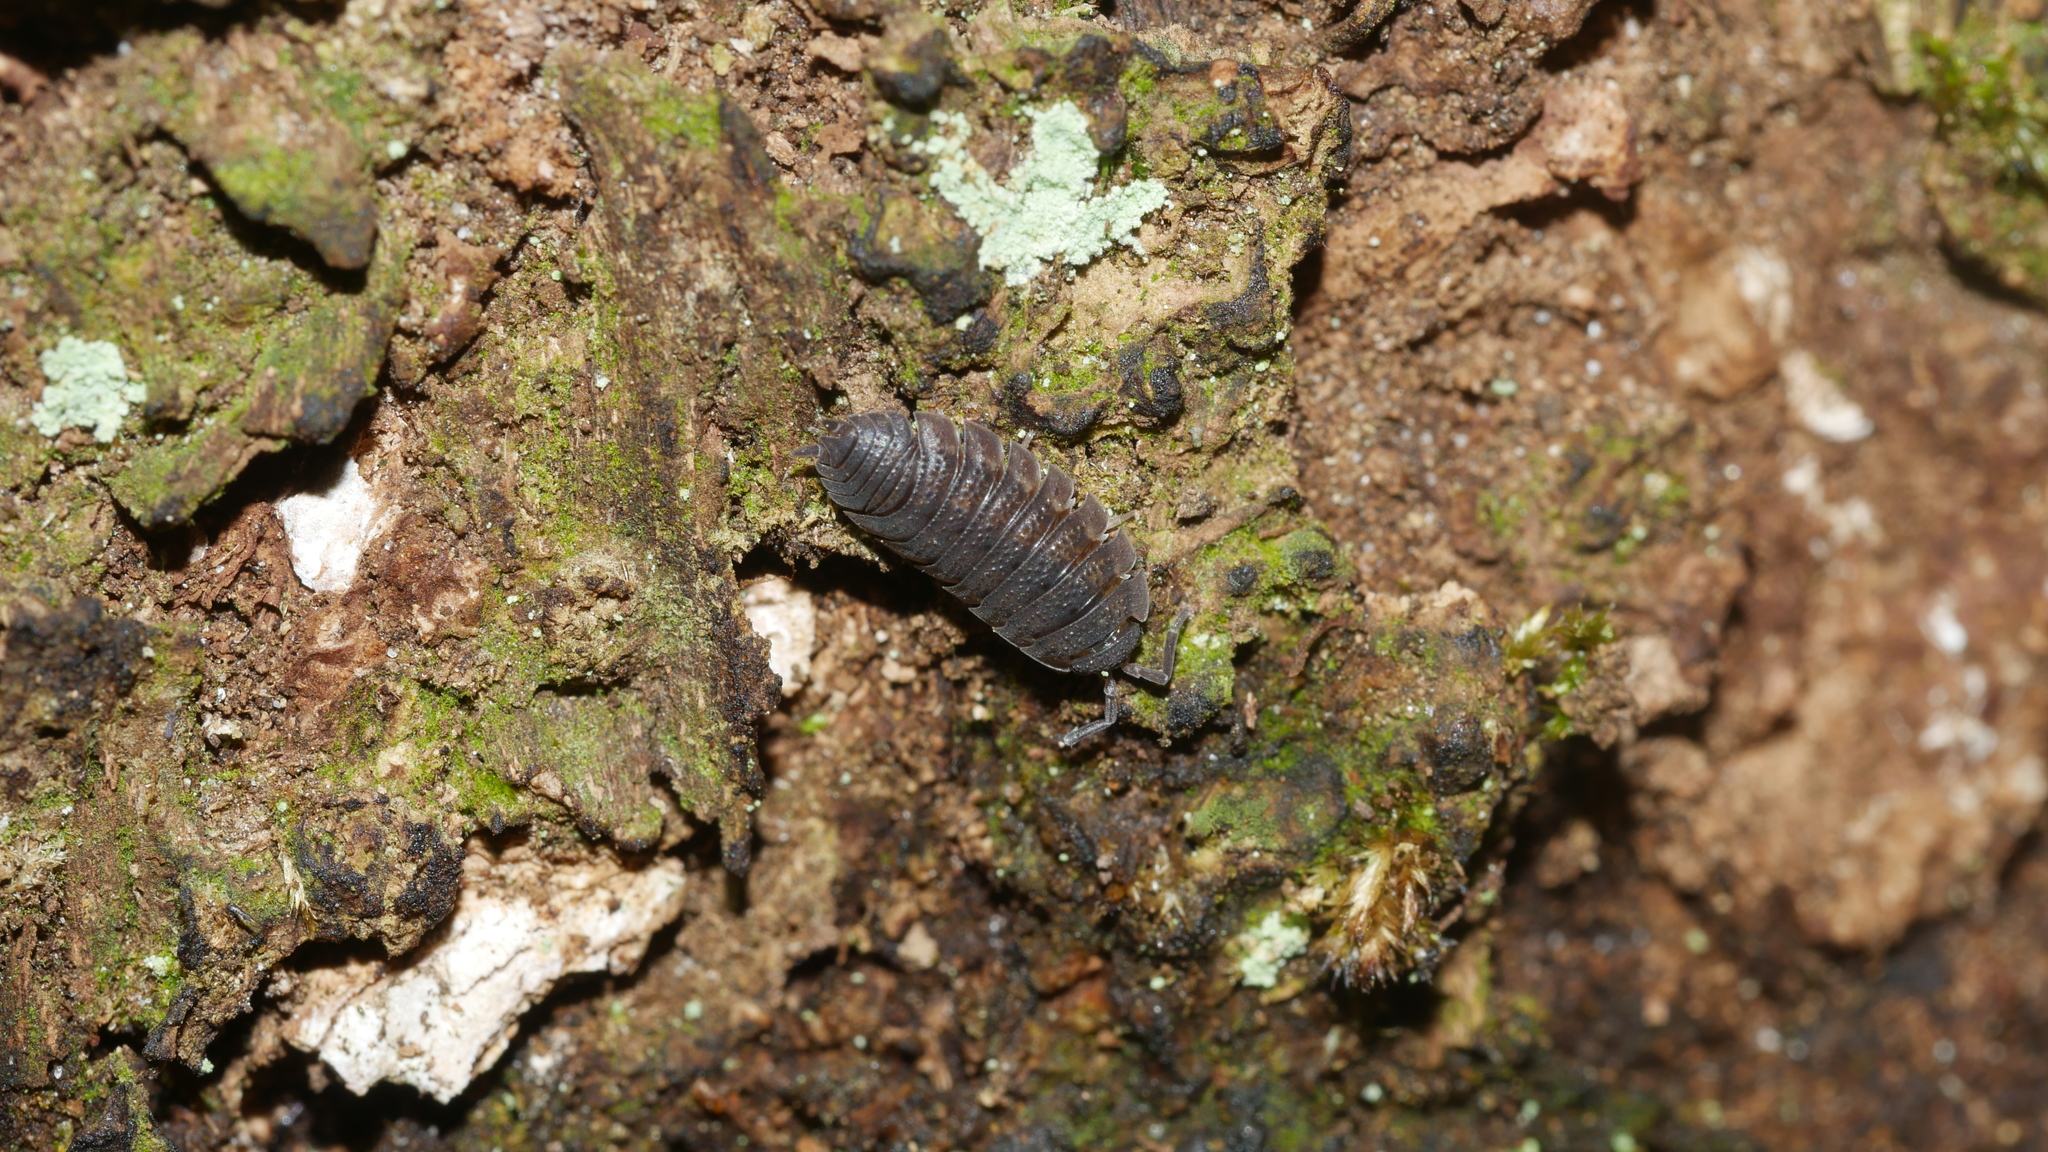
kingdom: Animalia
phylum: Arthropoda
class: Malacostraca
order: Isopoda
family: Porcellionidae
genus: Porcellio
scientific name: Porcellio scaber
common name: Common rough woodlouse
